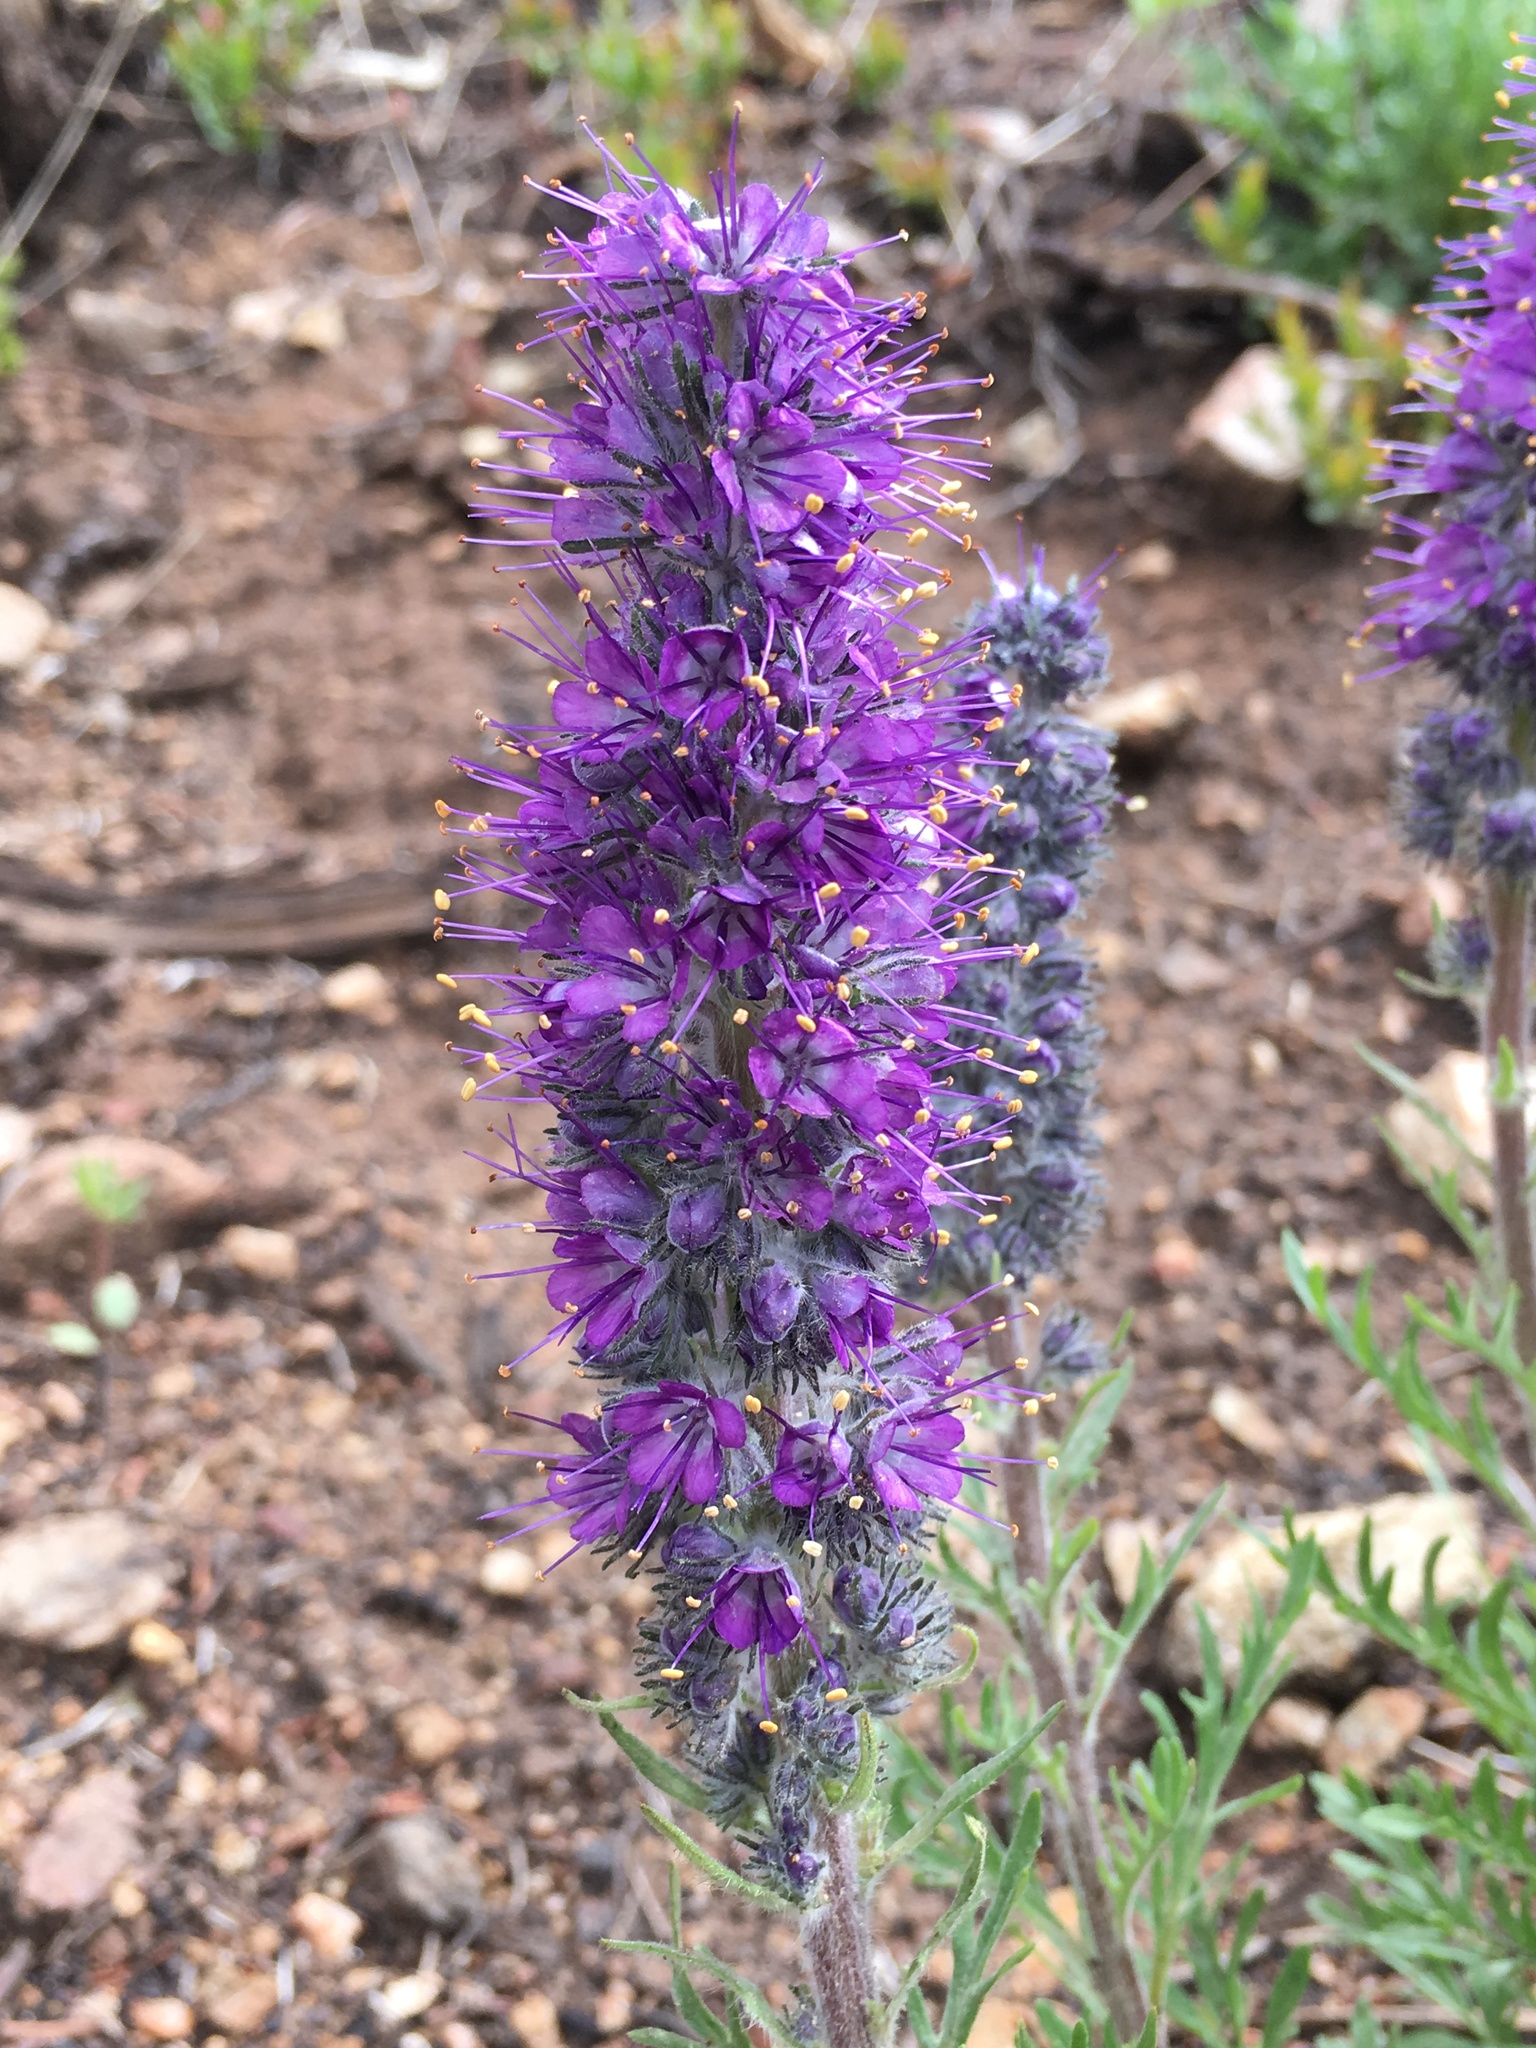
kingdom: Plantae
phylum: Tracheophyta
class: Magnoliopsida
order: Boraginales
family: Hydrophyllaceae
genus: Phacelia
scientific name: Phacelia sericea
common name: Silky phacelia
